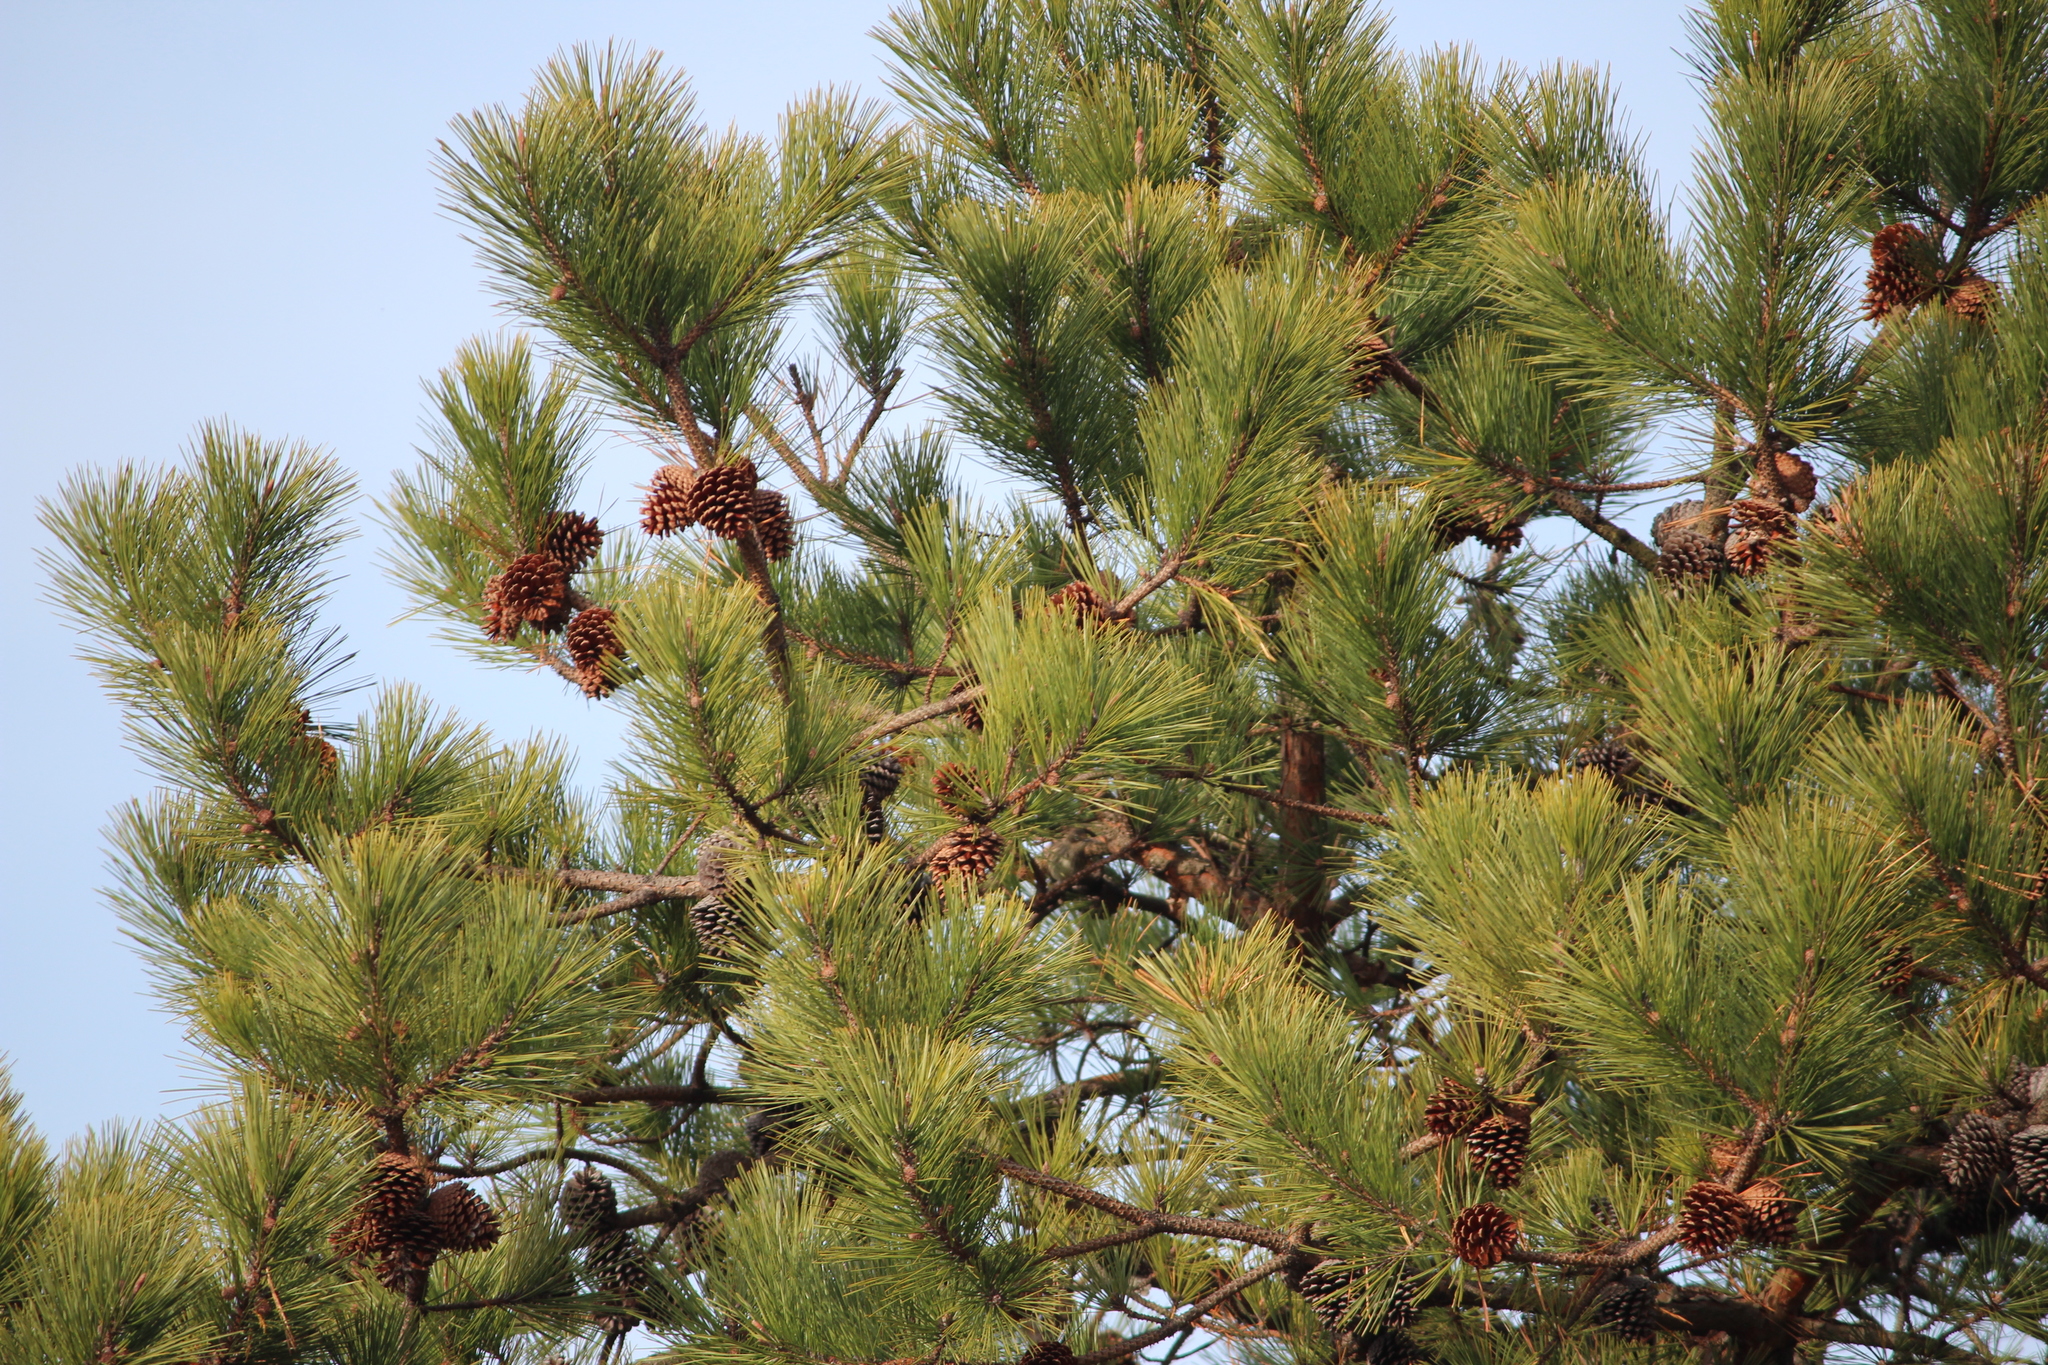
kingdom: Plantae
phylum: Tracheophyta
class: Pinopsida
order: Pinales
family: Pinaceae
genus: Pinus
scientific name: Pinus rigida
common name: Pitch pine
